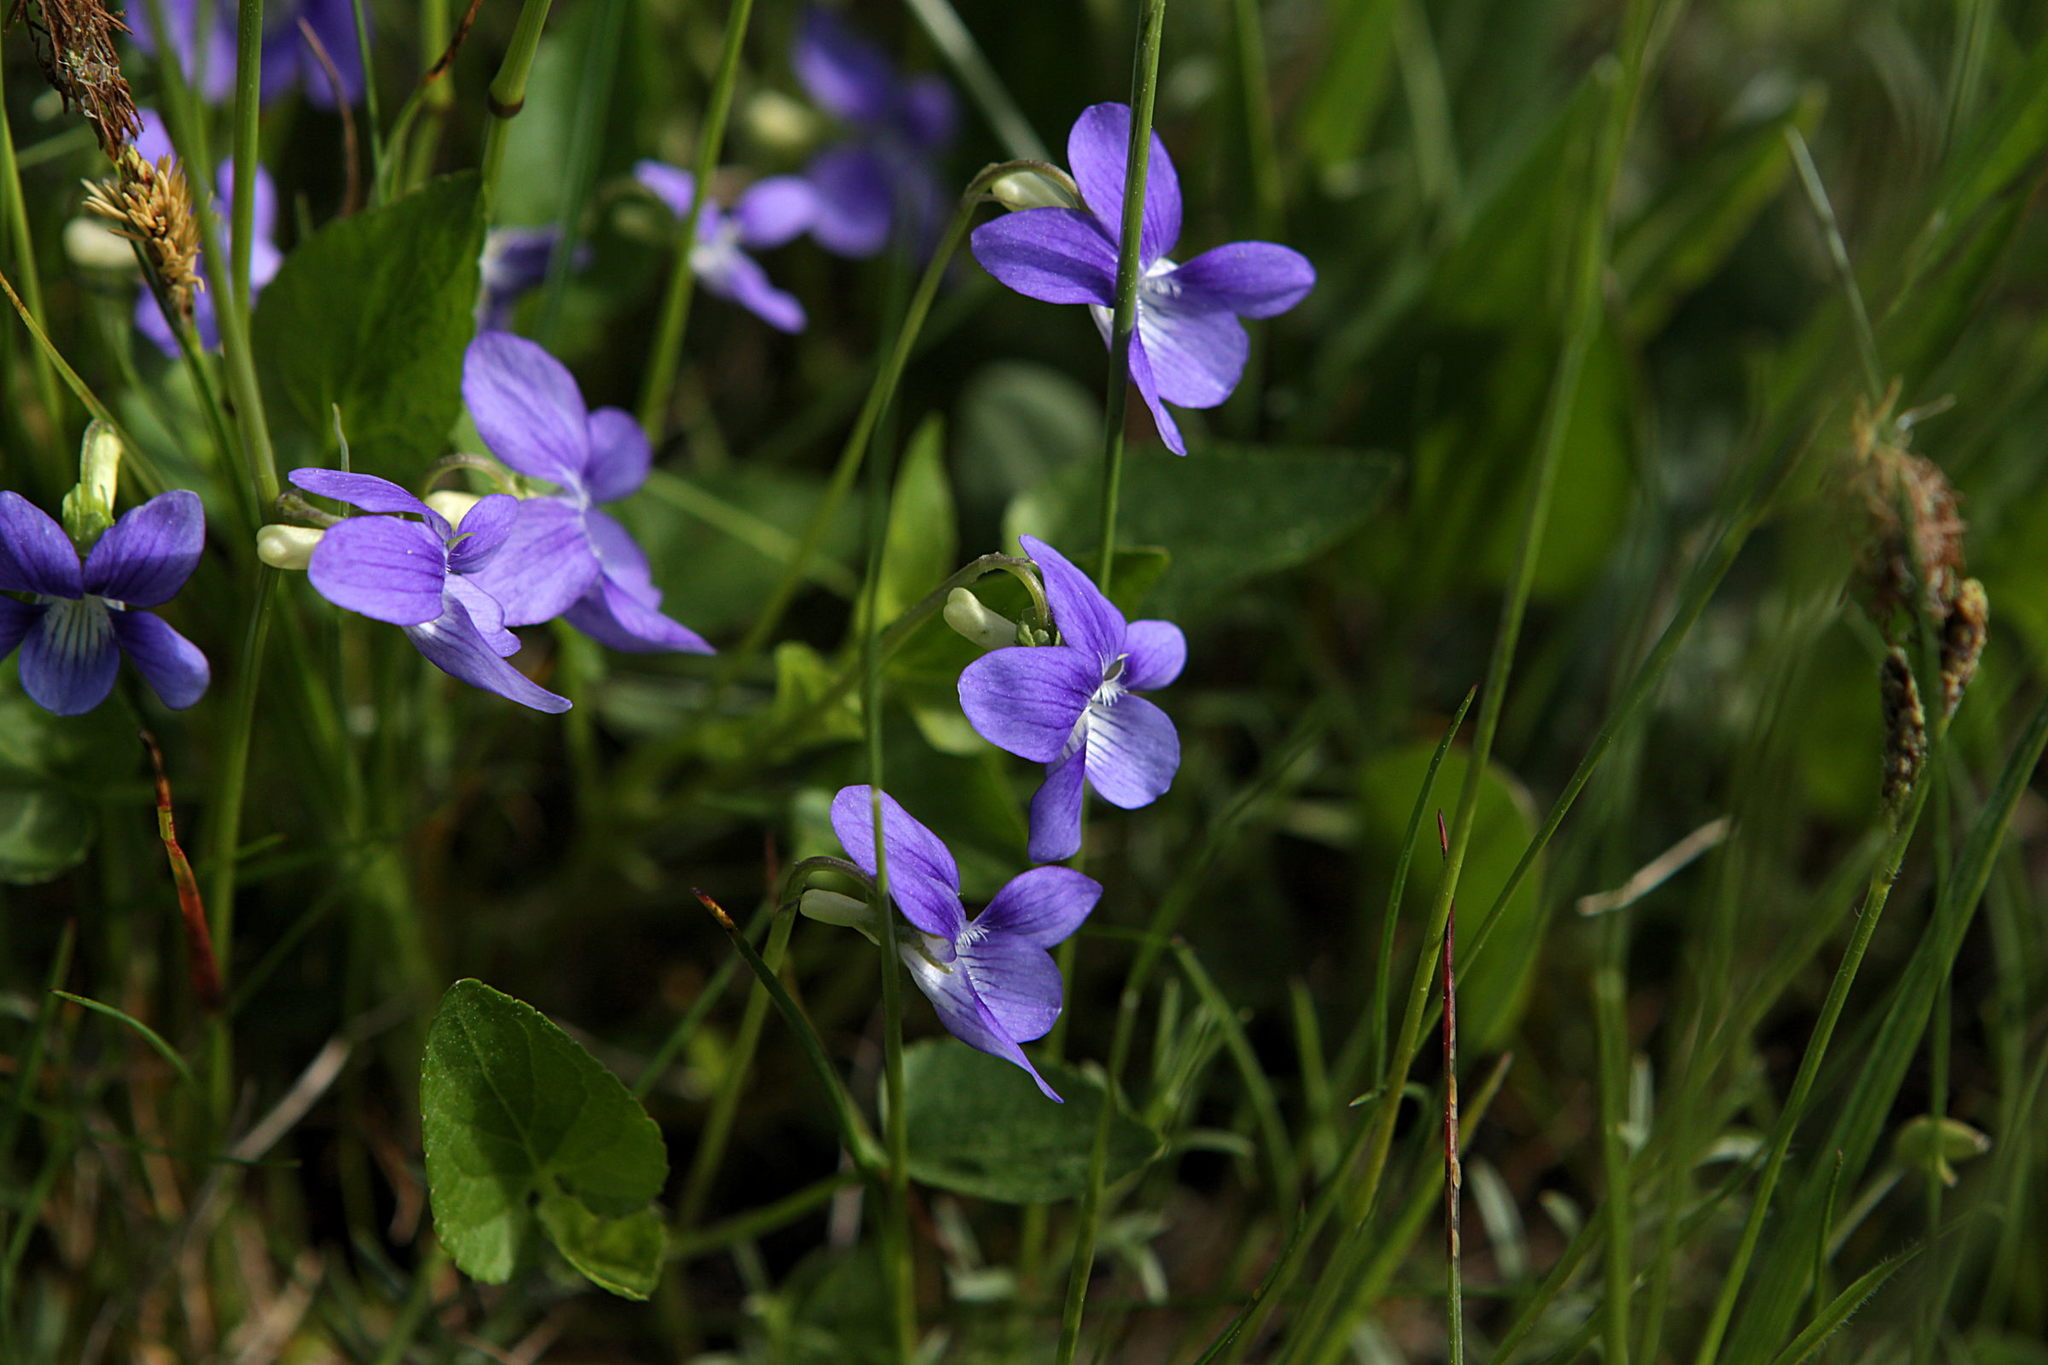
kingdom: Plantae
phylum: Tracheophyta
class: Magnoliopsida
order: Malpighiales
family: Violaceae
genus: Viola
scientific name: Viola canina
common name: Heath dog-violet
